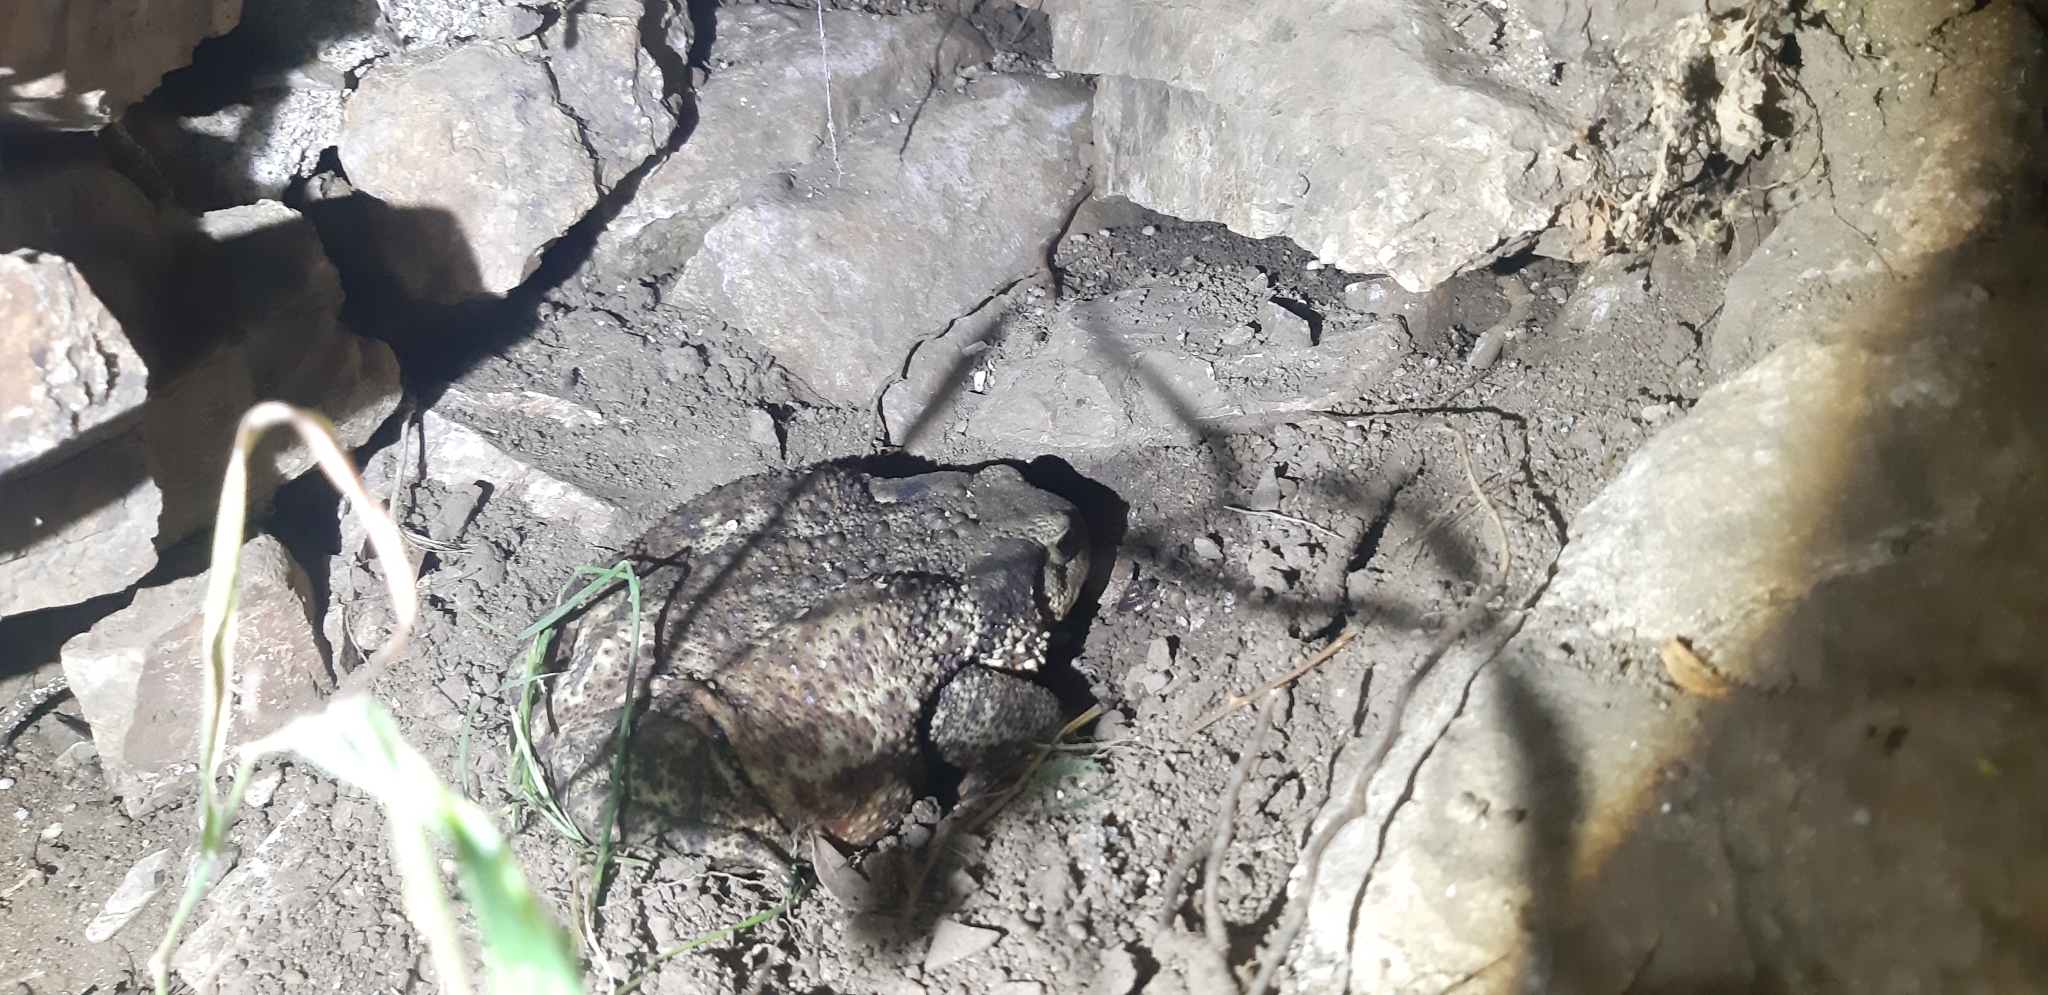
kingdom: Animalia
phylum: Chordata
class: Amphibia
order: Anura
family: Bufonidae
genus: Bufo
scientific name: Bufo bufo
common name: Common toad
